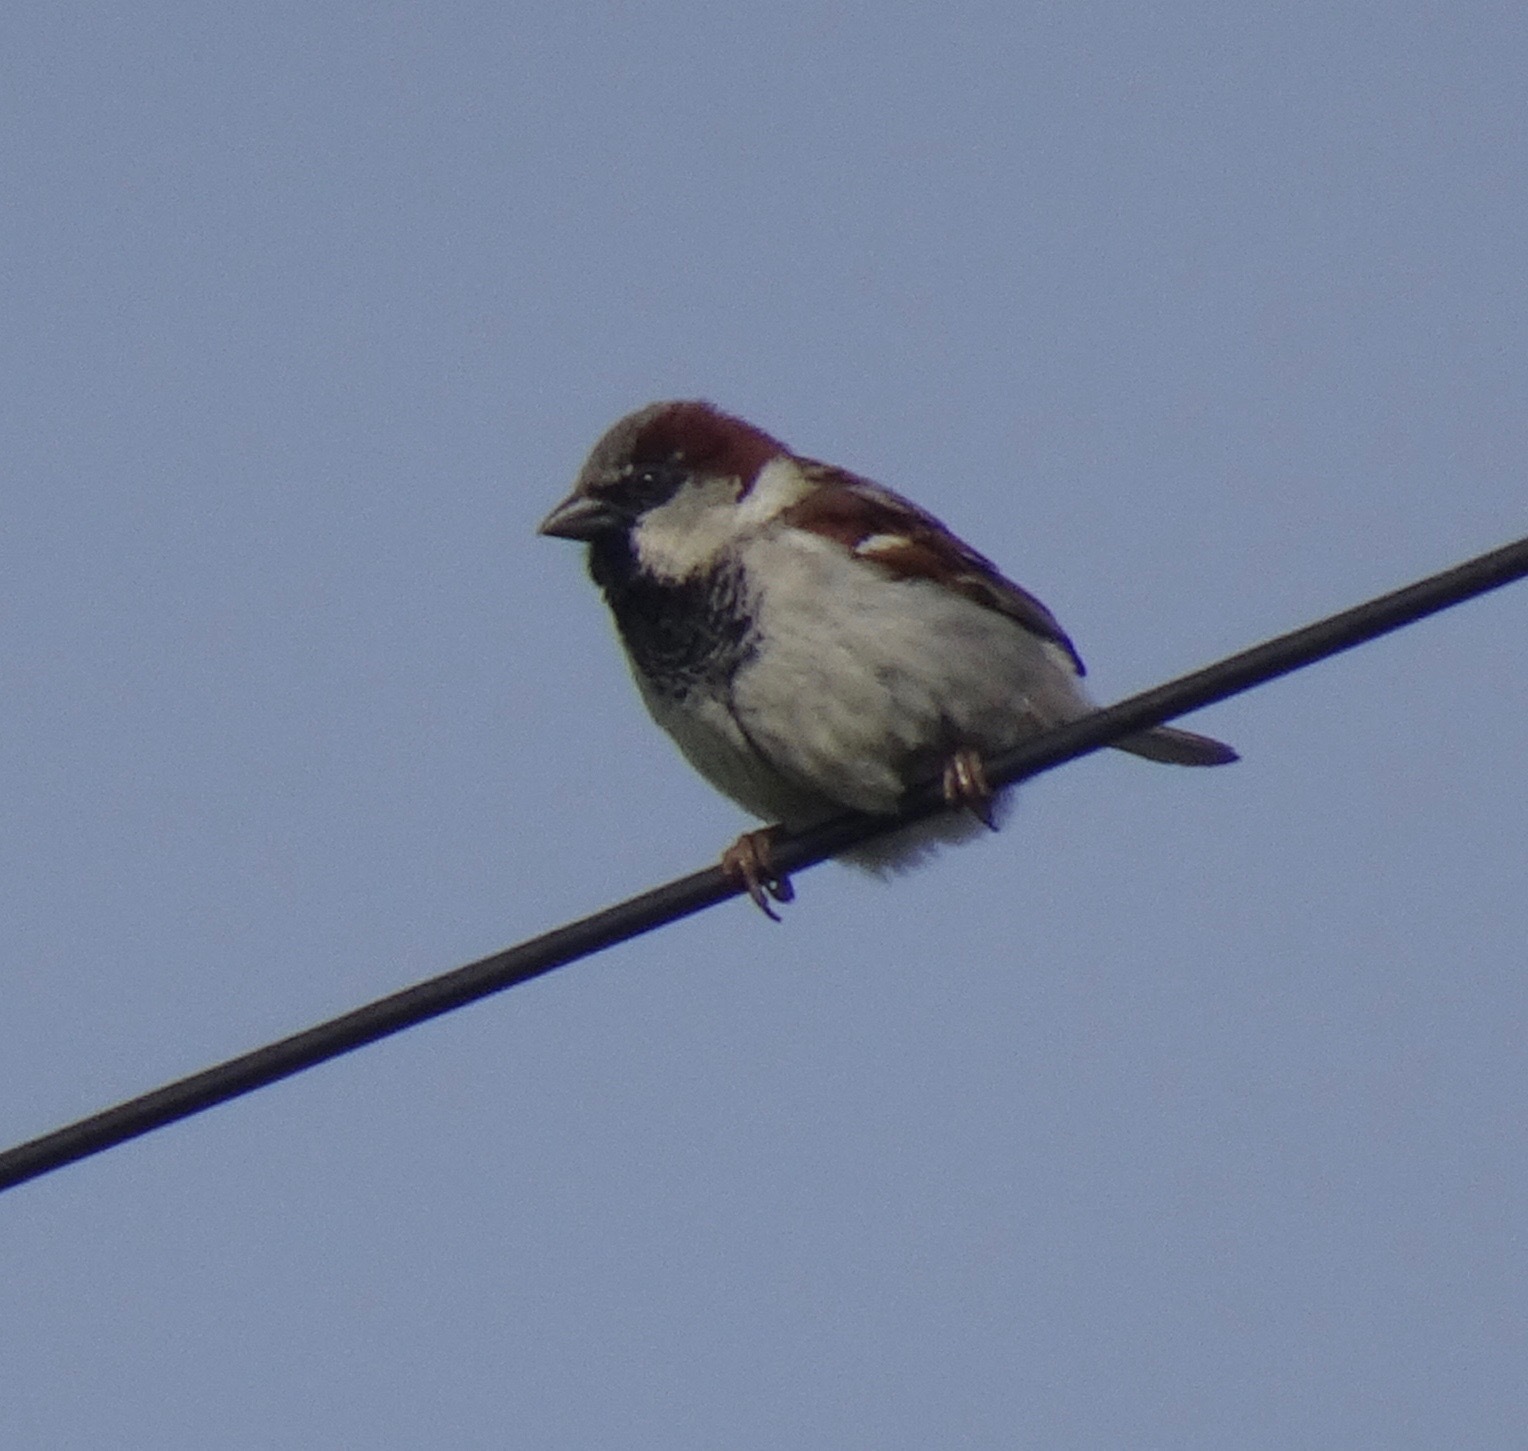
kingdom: Animalia
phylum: Chordata
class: Aves
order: Passeriformes
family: Passeridae
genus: Passer
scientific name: Passer domesticus
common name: House sparrow
